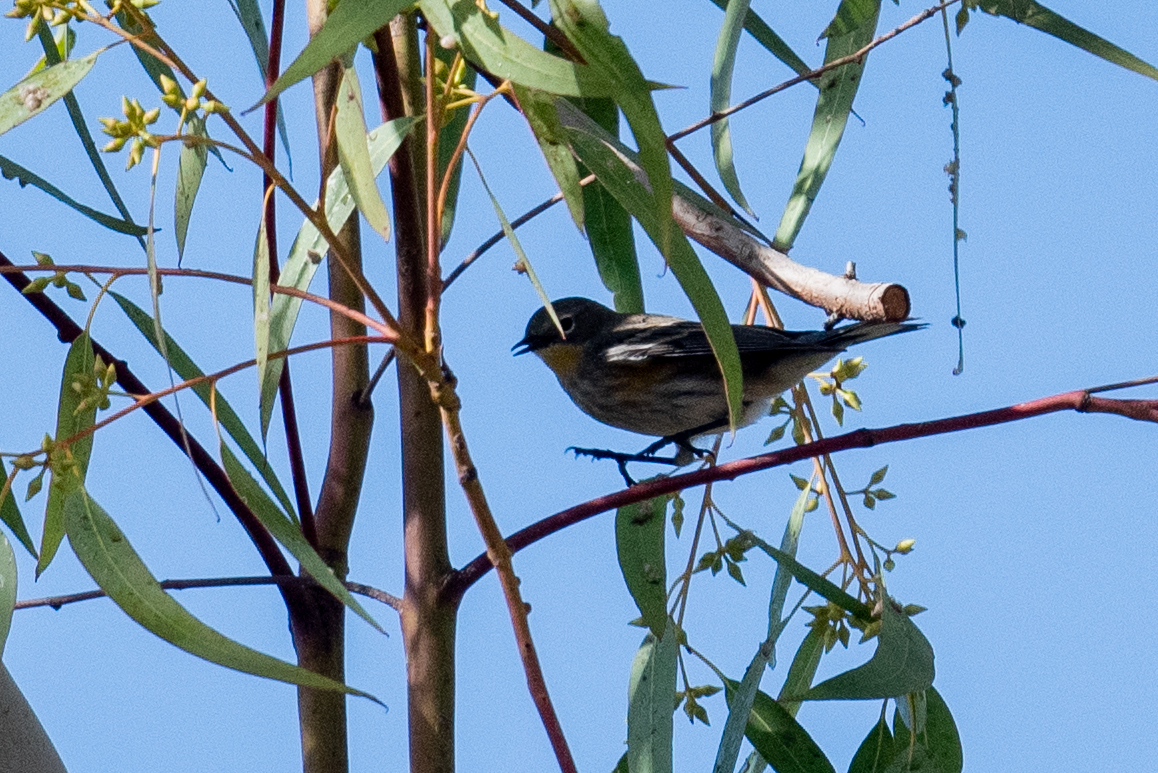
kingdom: Animalia
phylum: Chordata
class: Aves
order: Passeriformes
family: Parulidae
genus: Setophaga
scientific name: Setophaga coronata
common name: Myrtle warbler
